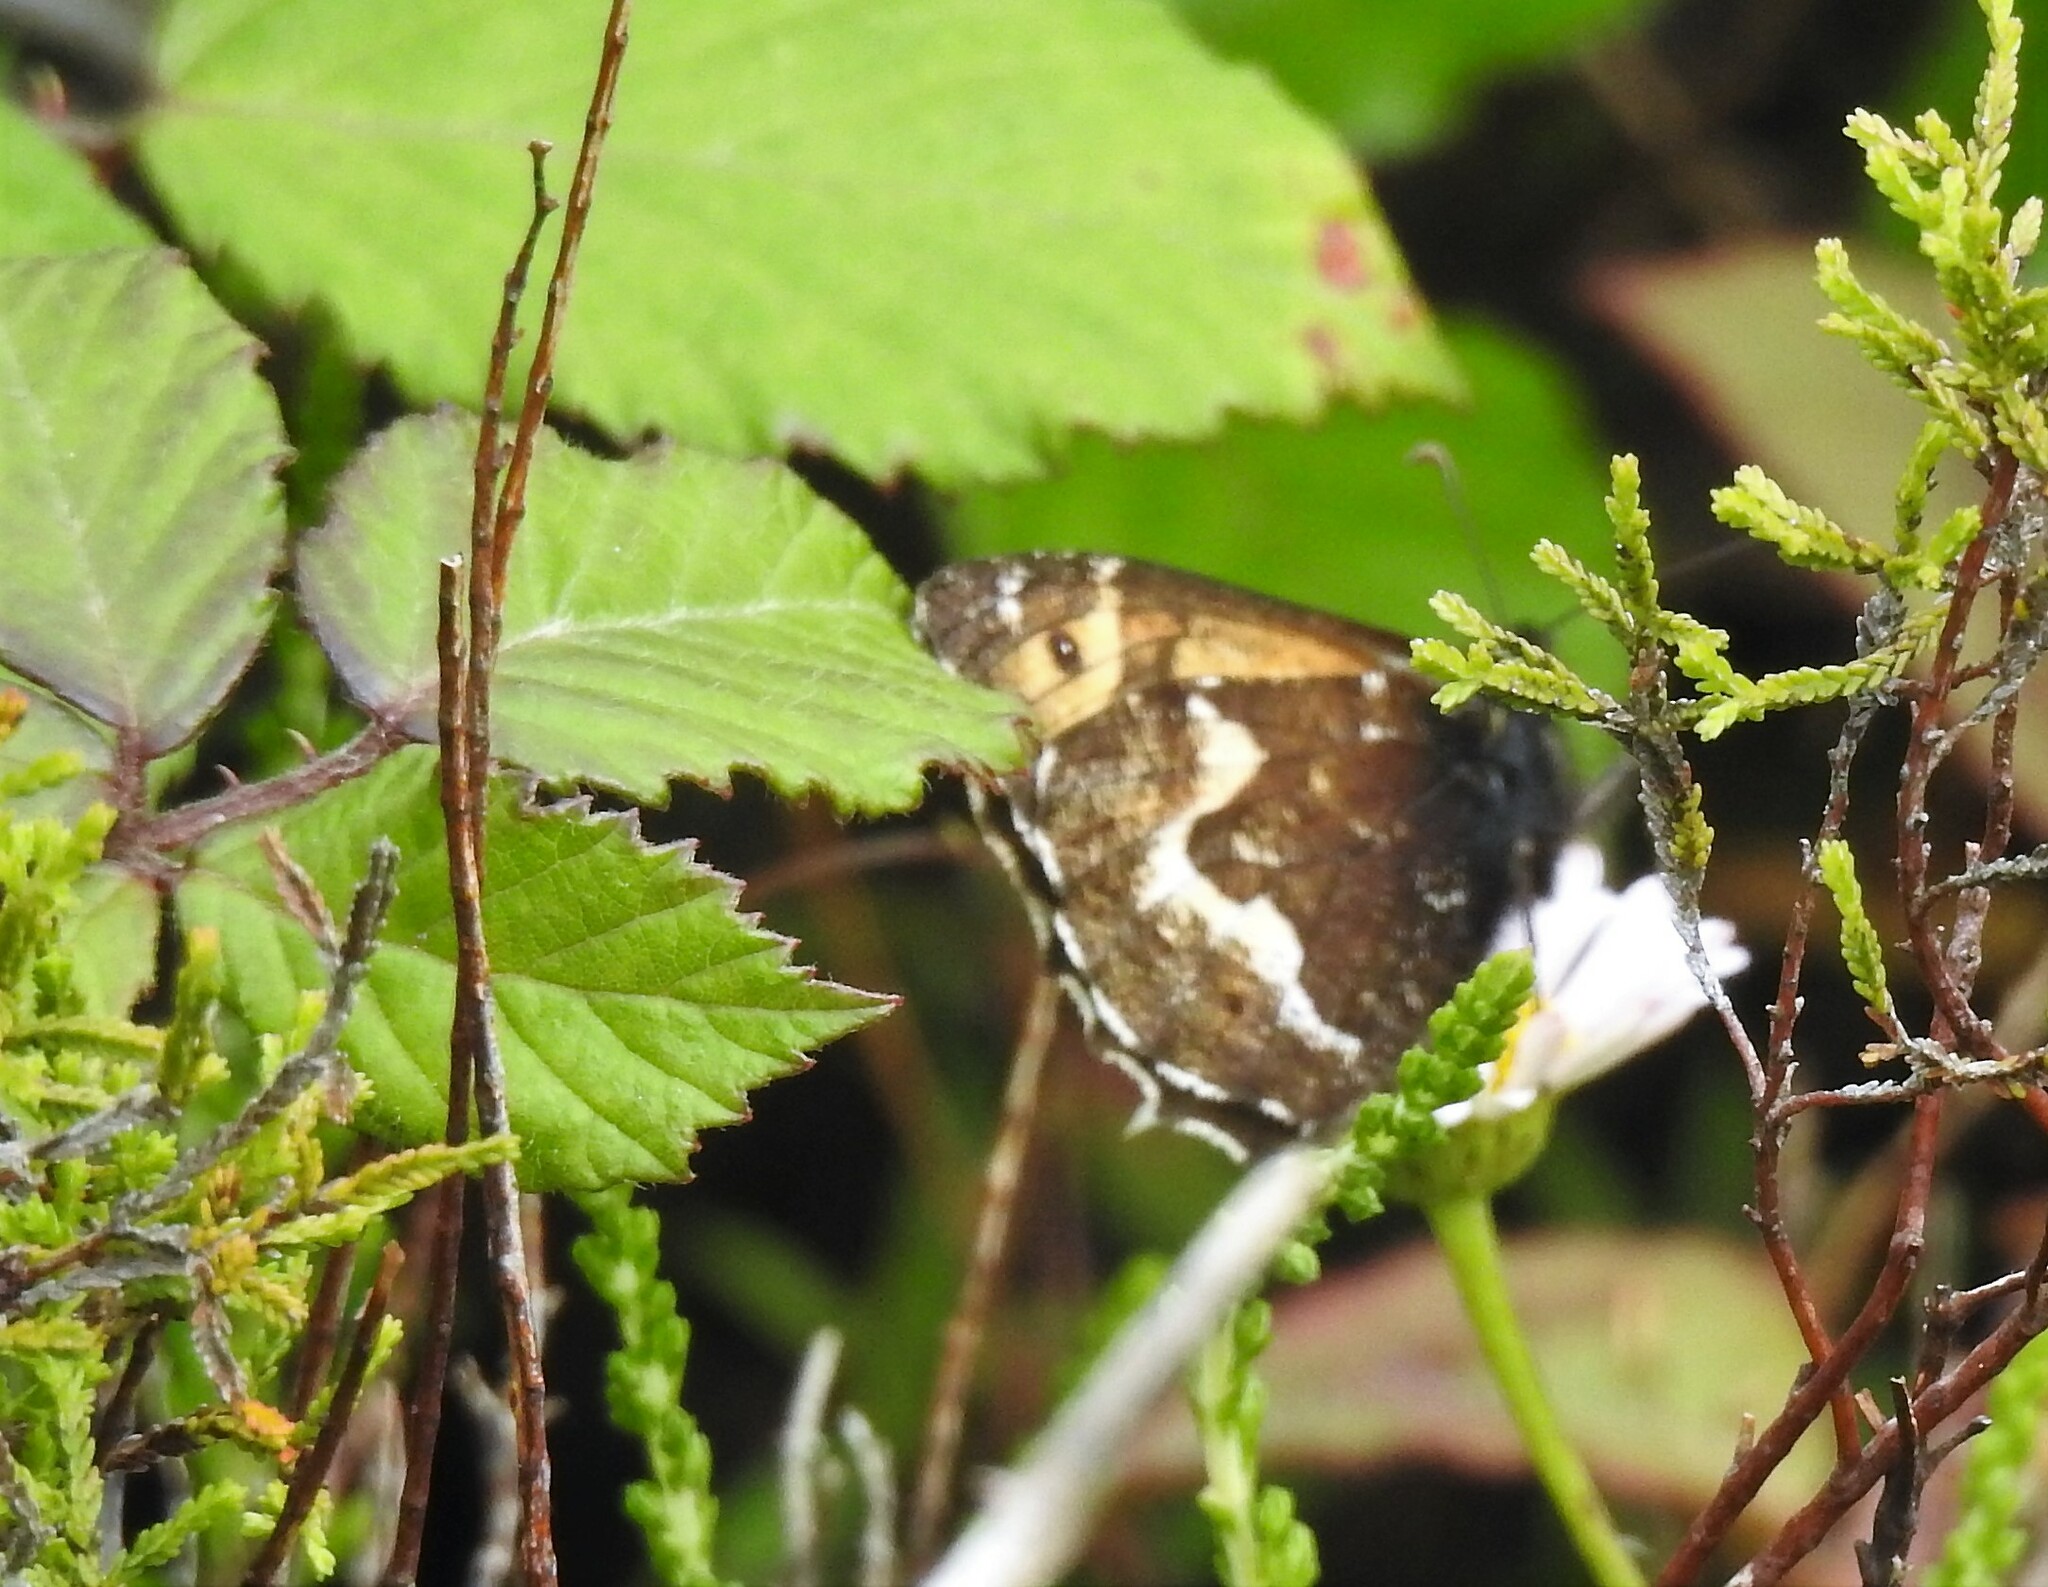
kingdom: Animalia
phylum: Arthropoda
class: Insecta
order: Lepidoptera
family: Nymphalidae
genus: Hipparchia
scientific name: Hipparchia azorinus
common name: Azores grayling
